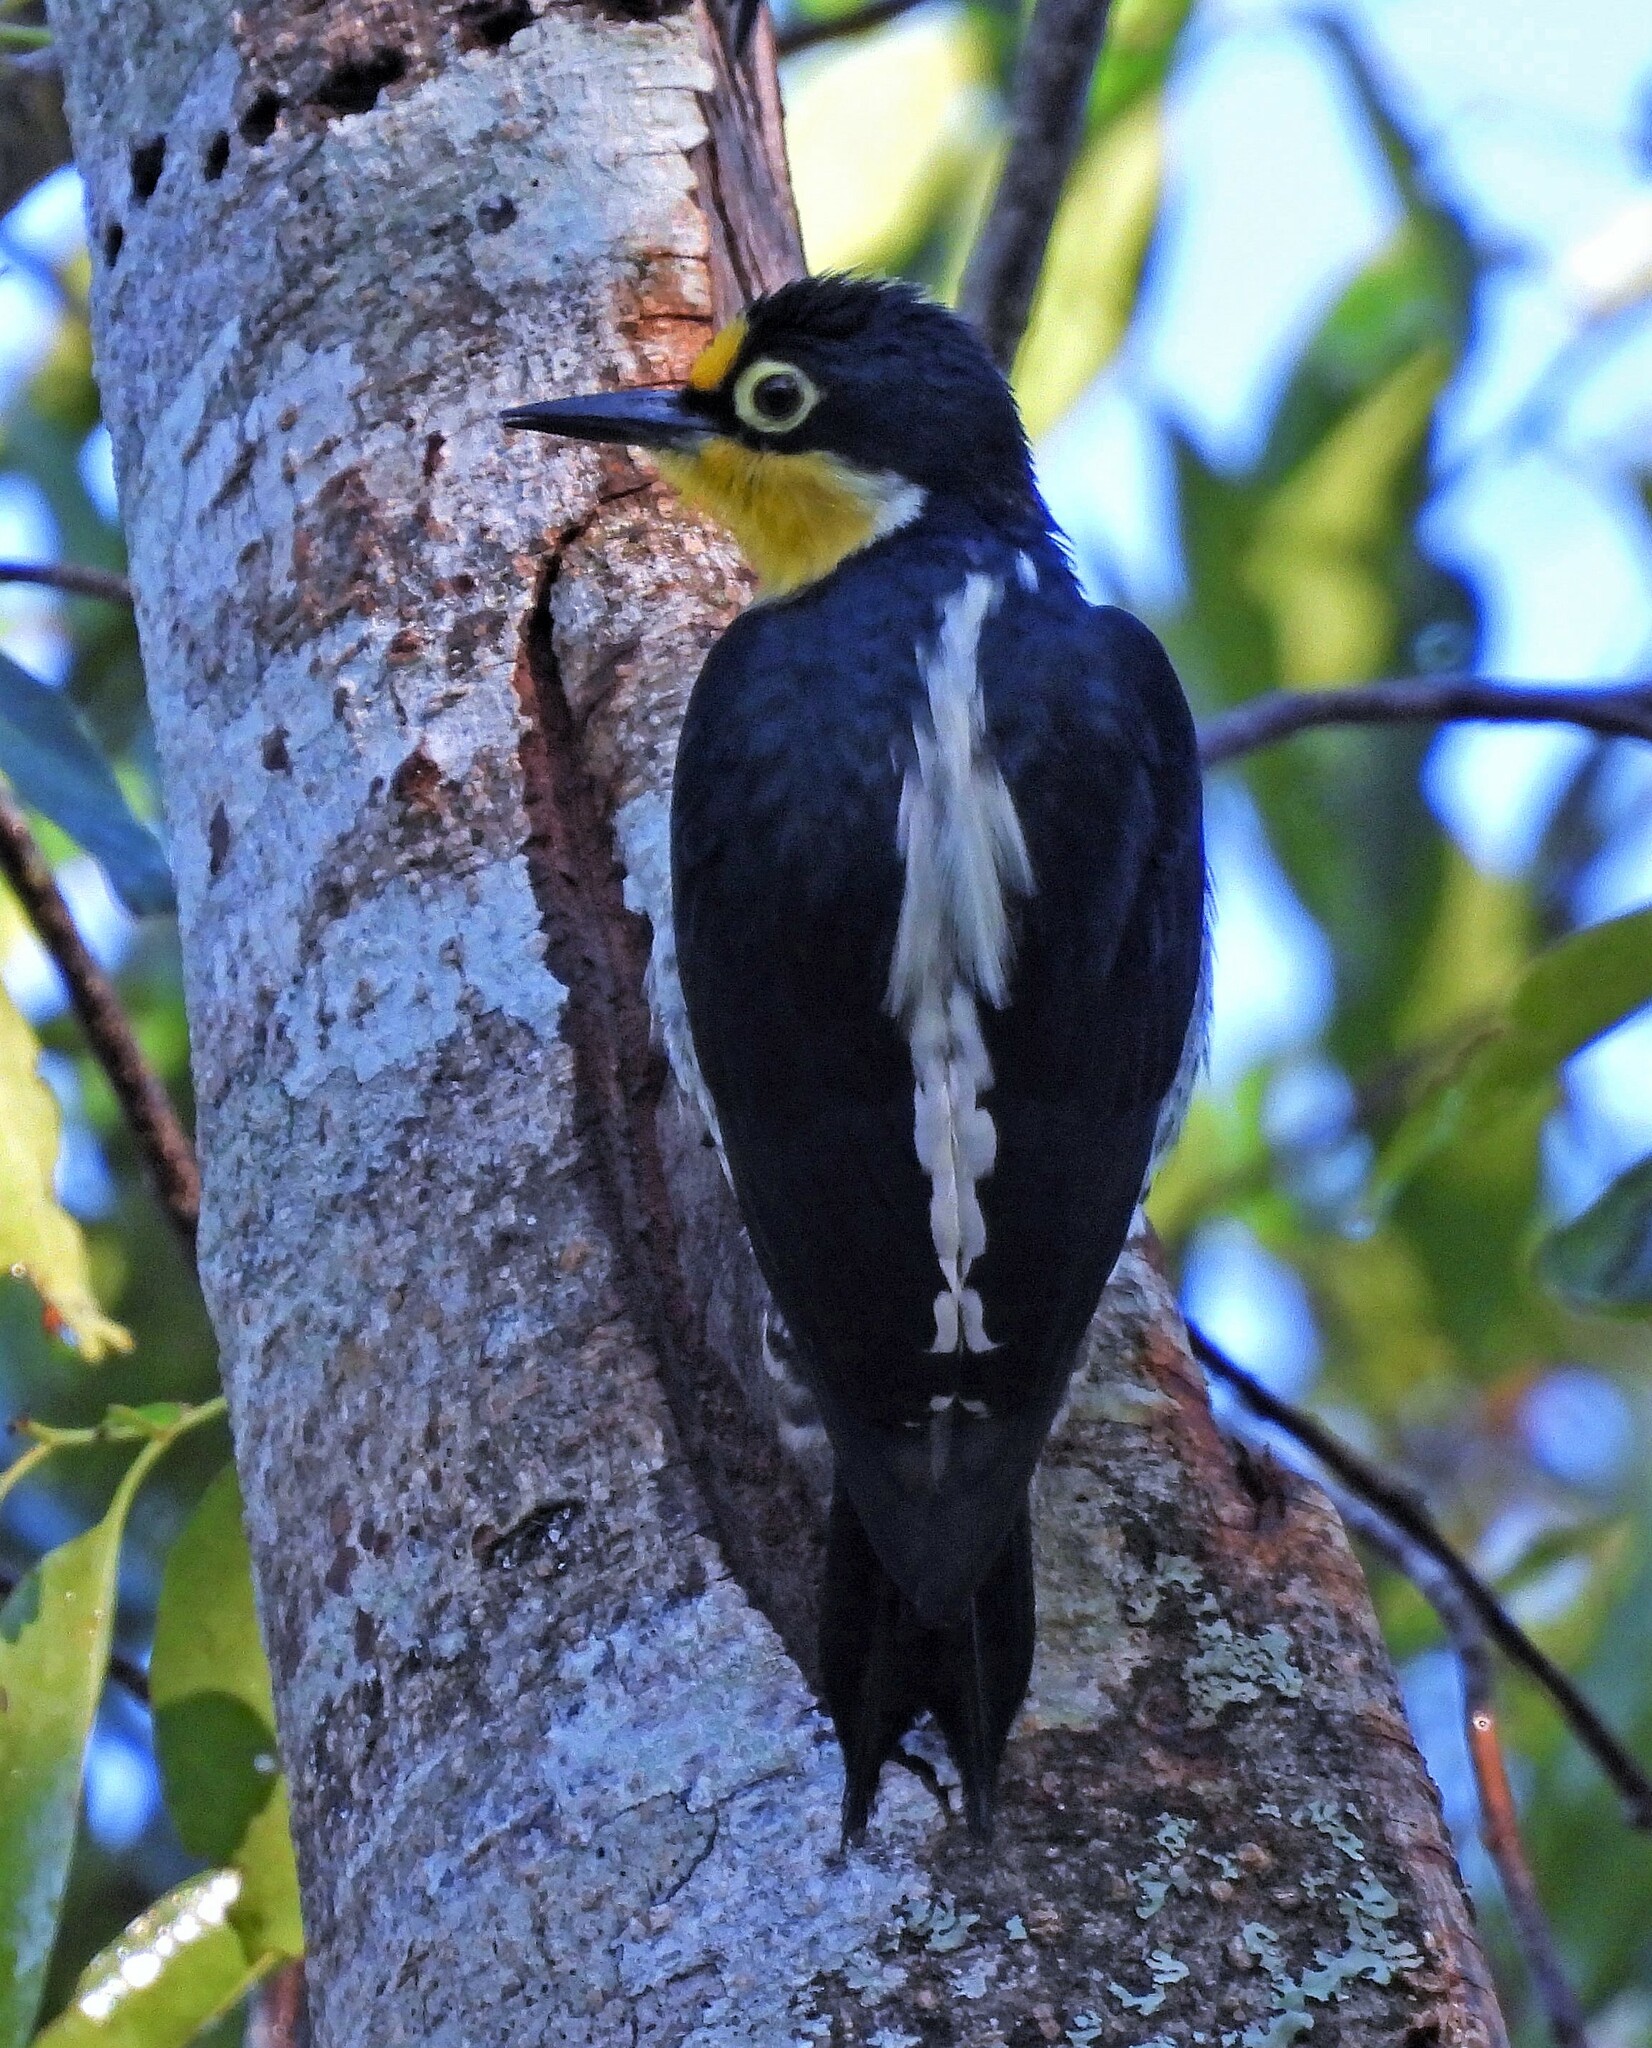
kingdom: Animalia
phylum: Chordata
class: Aves
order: Piciformes
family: Picidae
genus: Melanerpes
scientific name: Melanerpes flavifrons
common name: Yellow-fronted woodpecker
